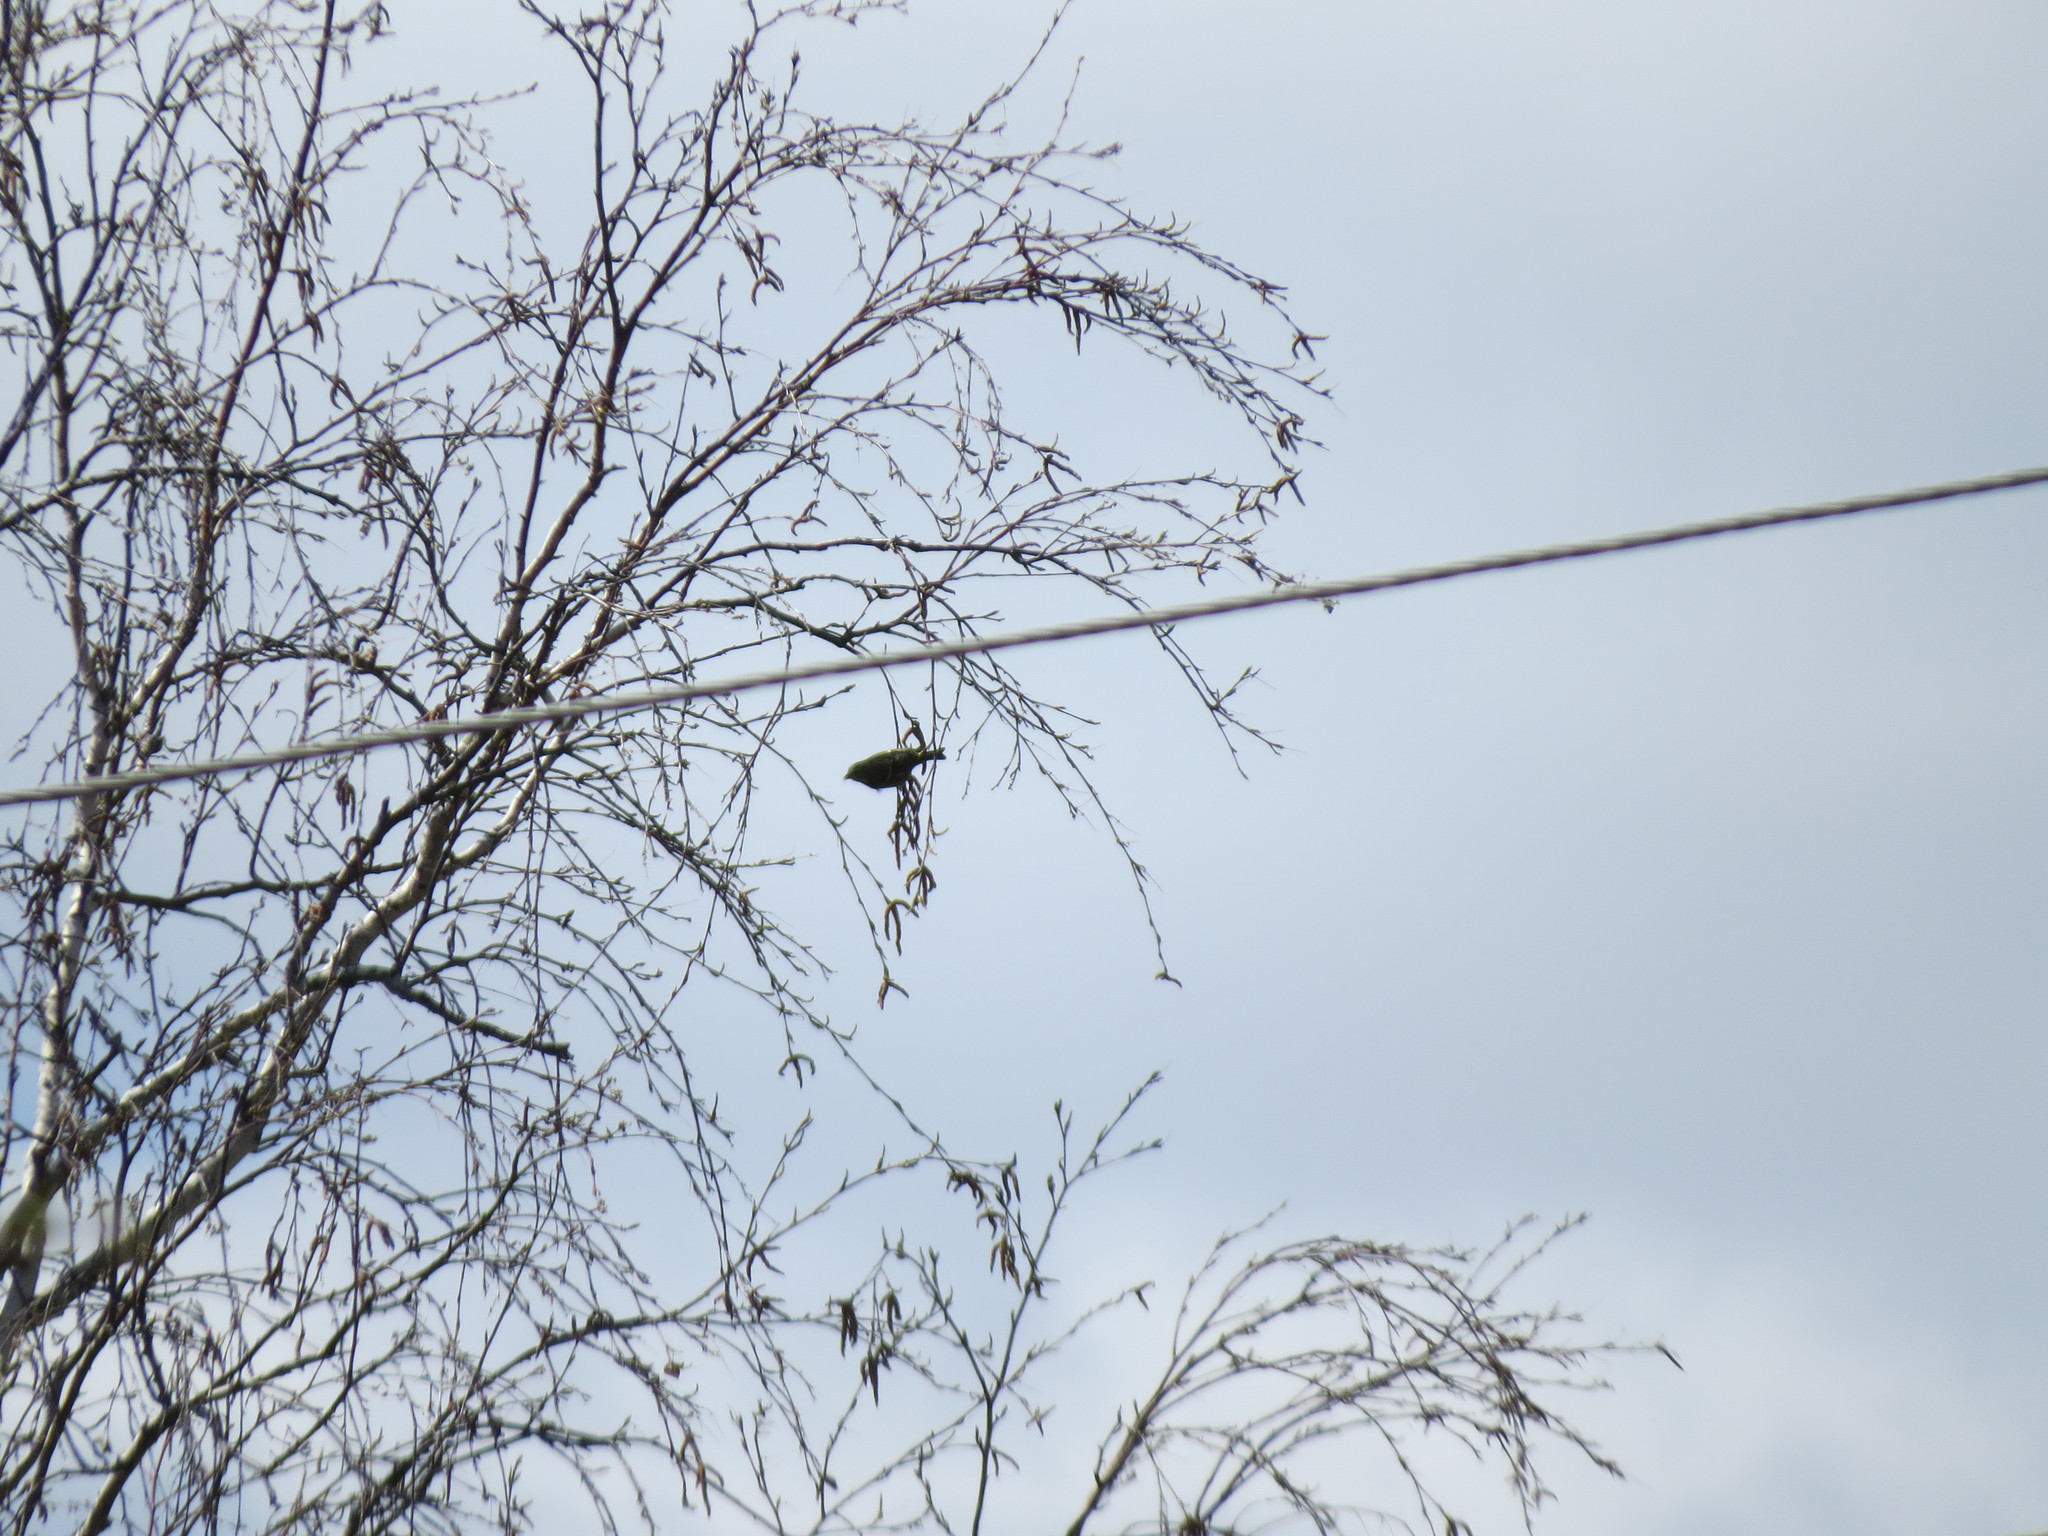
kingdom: Animalia
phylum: Chordata
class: Aves
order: Passeriformes
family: Fringillidae
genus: Spinus
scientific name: Spinus spinus
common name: Eurasian siskin
